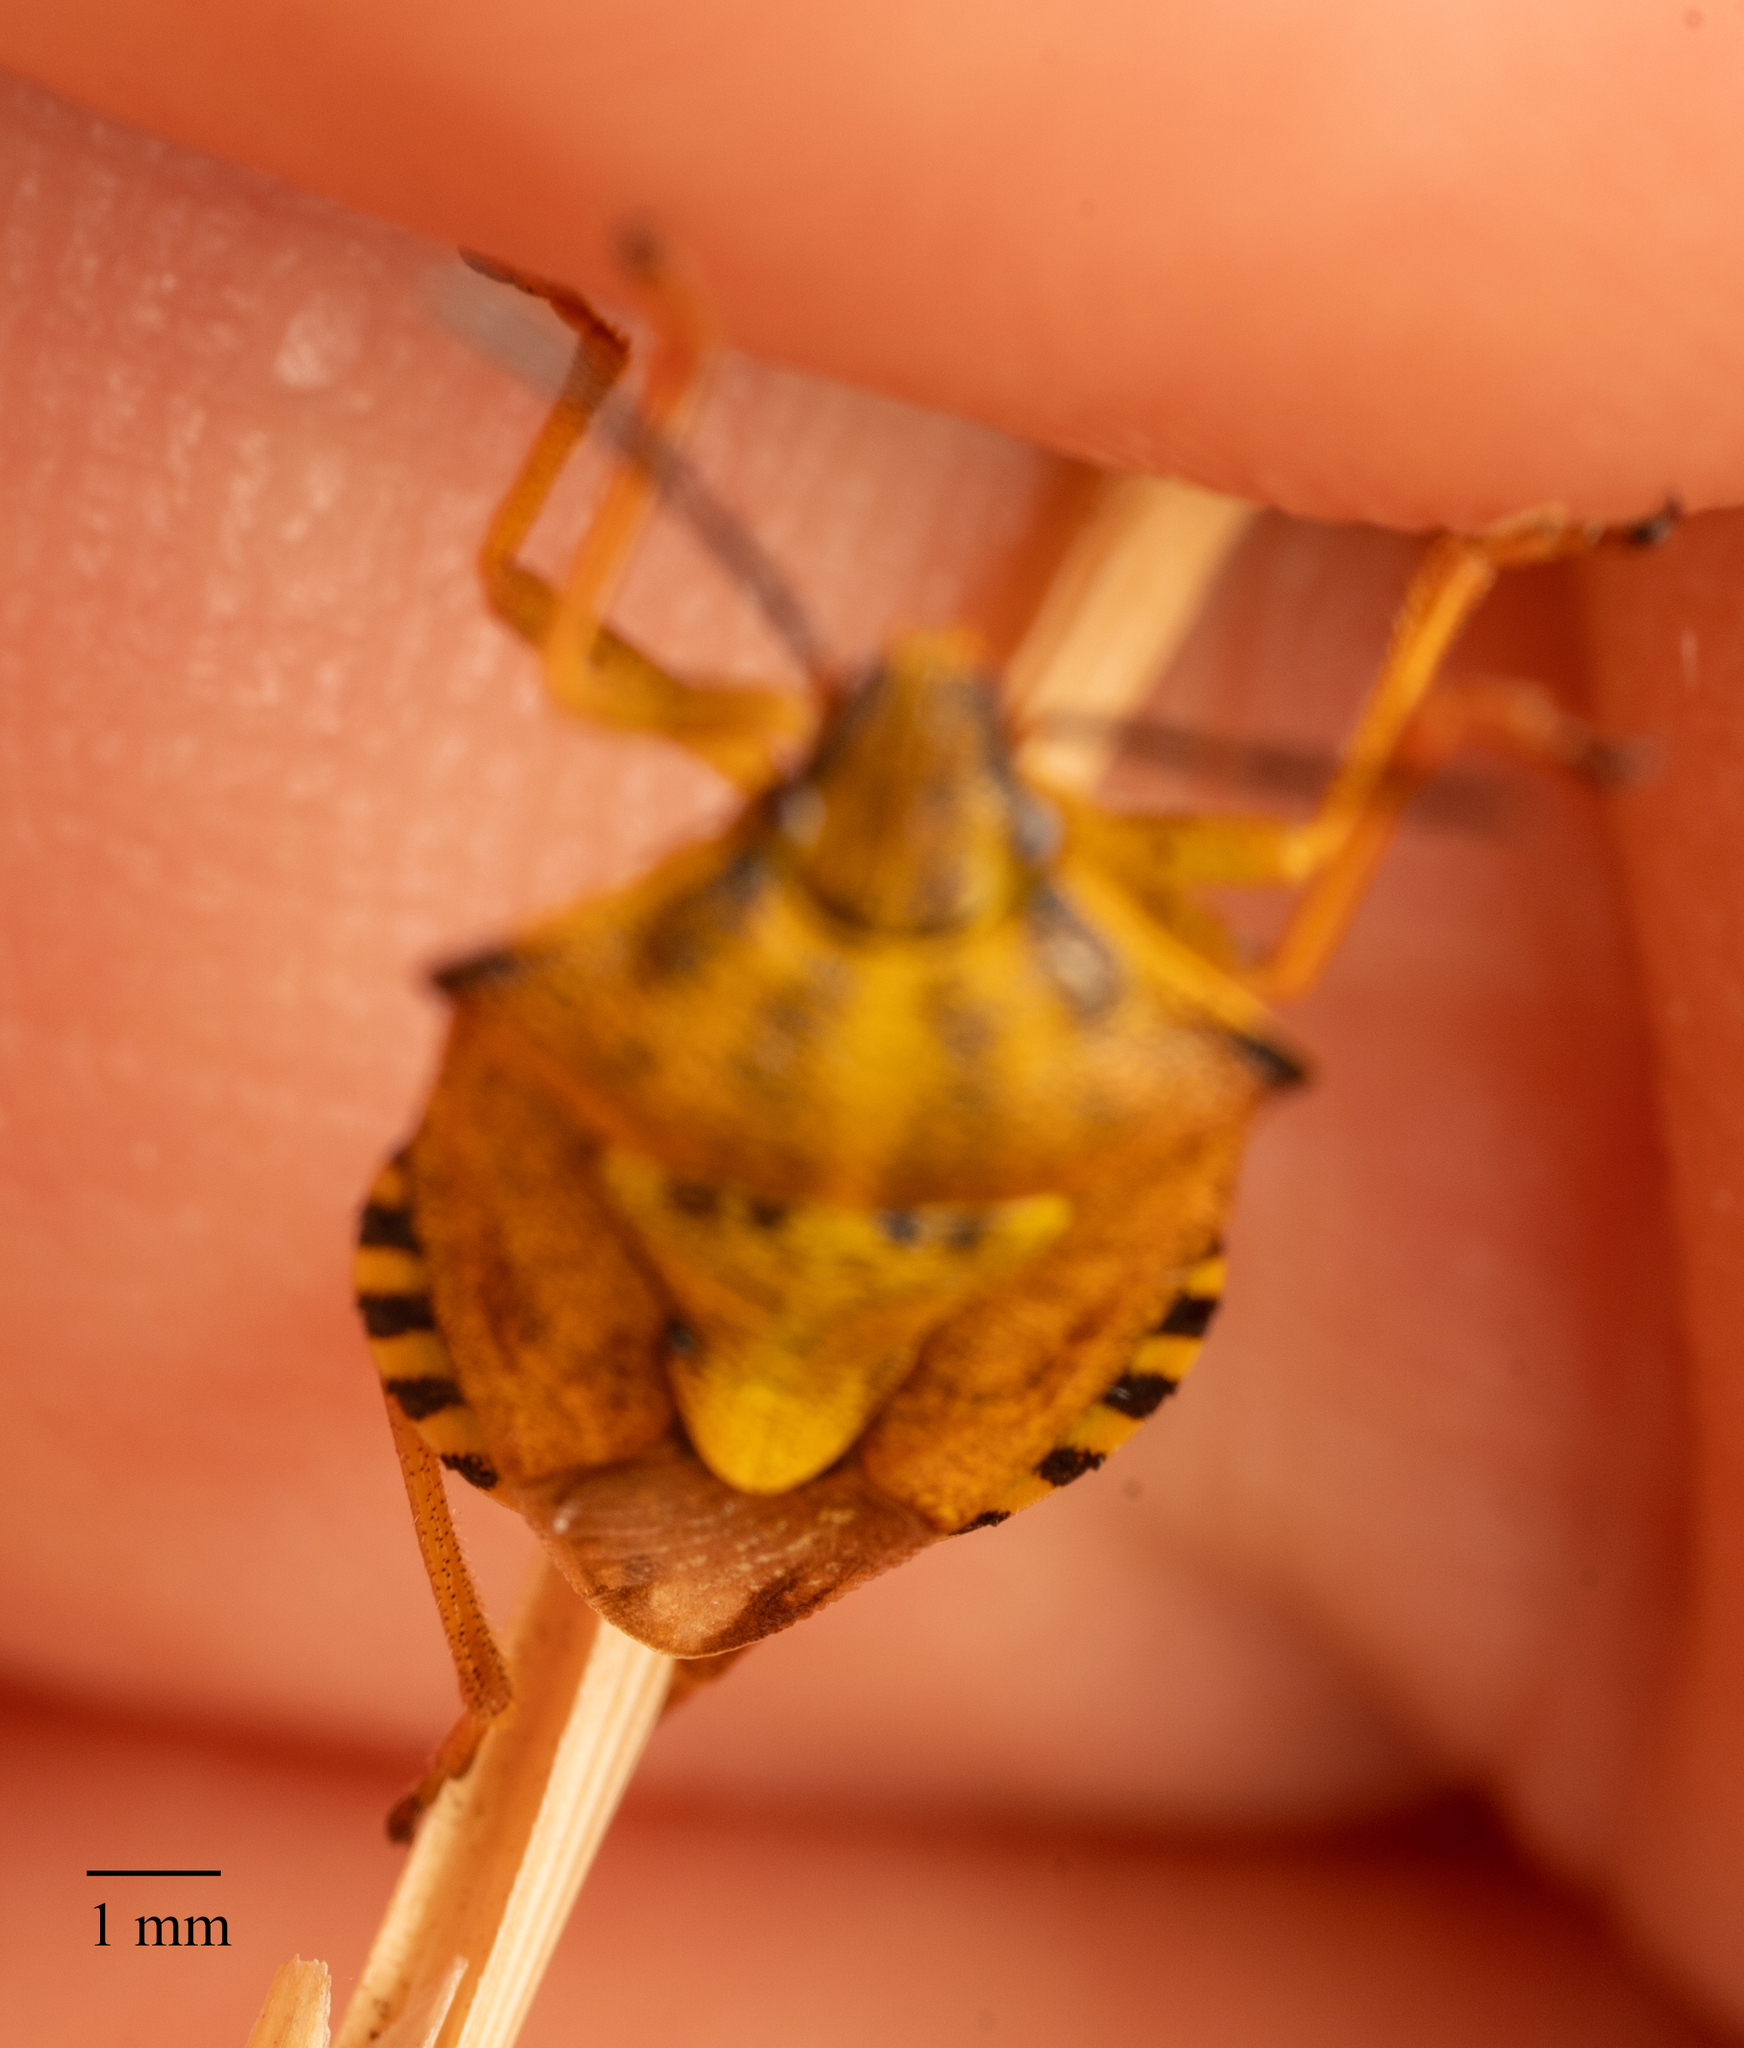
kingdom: Animalia
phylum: Arthropoda
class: Insecta
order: Hemiptera
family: Pentatomidae
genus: Carpocoris
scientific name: Carpocoris purpureipennis
